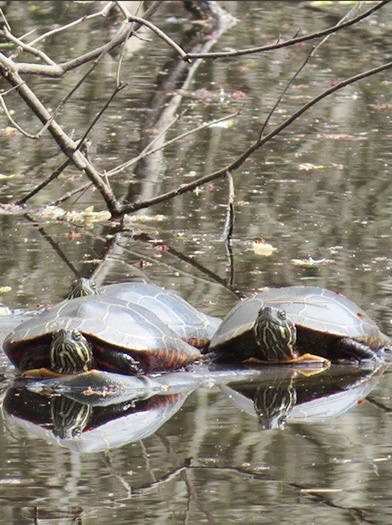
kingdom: Animalia
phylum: Chordata
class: Testudines
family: Emydidae
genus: Chrysemys
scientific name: Chrysemys picta
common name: Painted turtle
